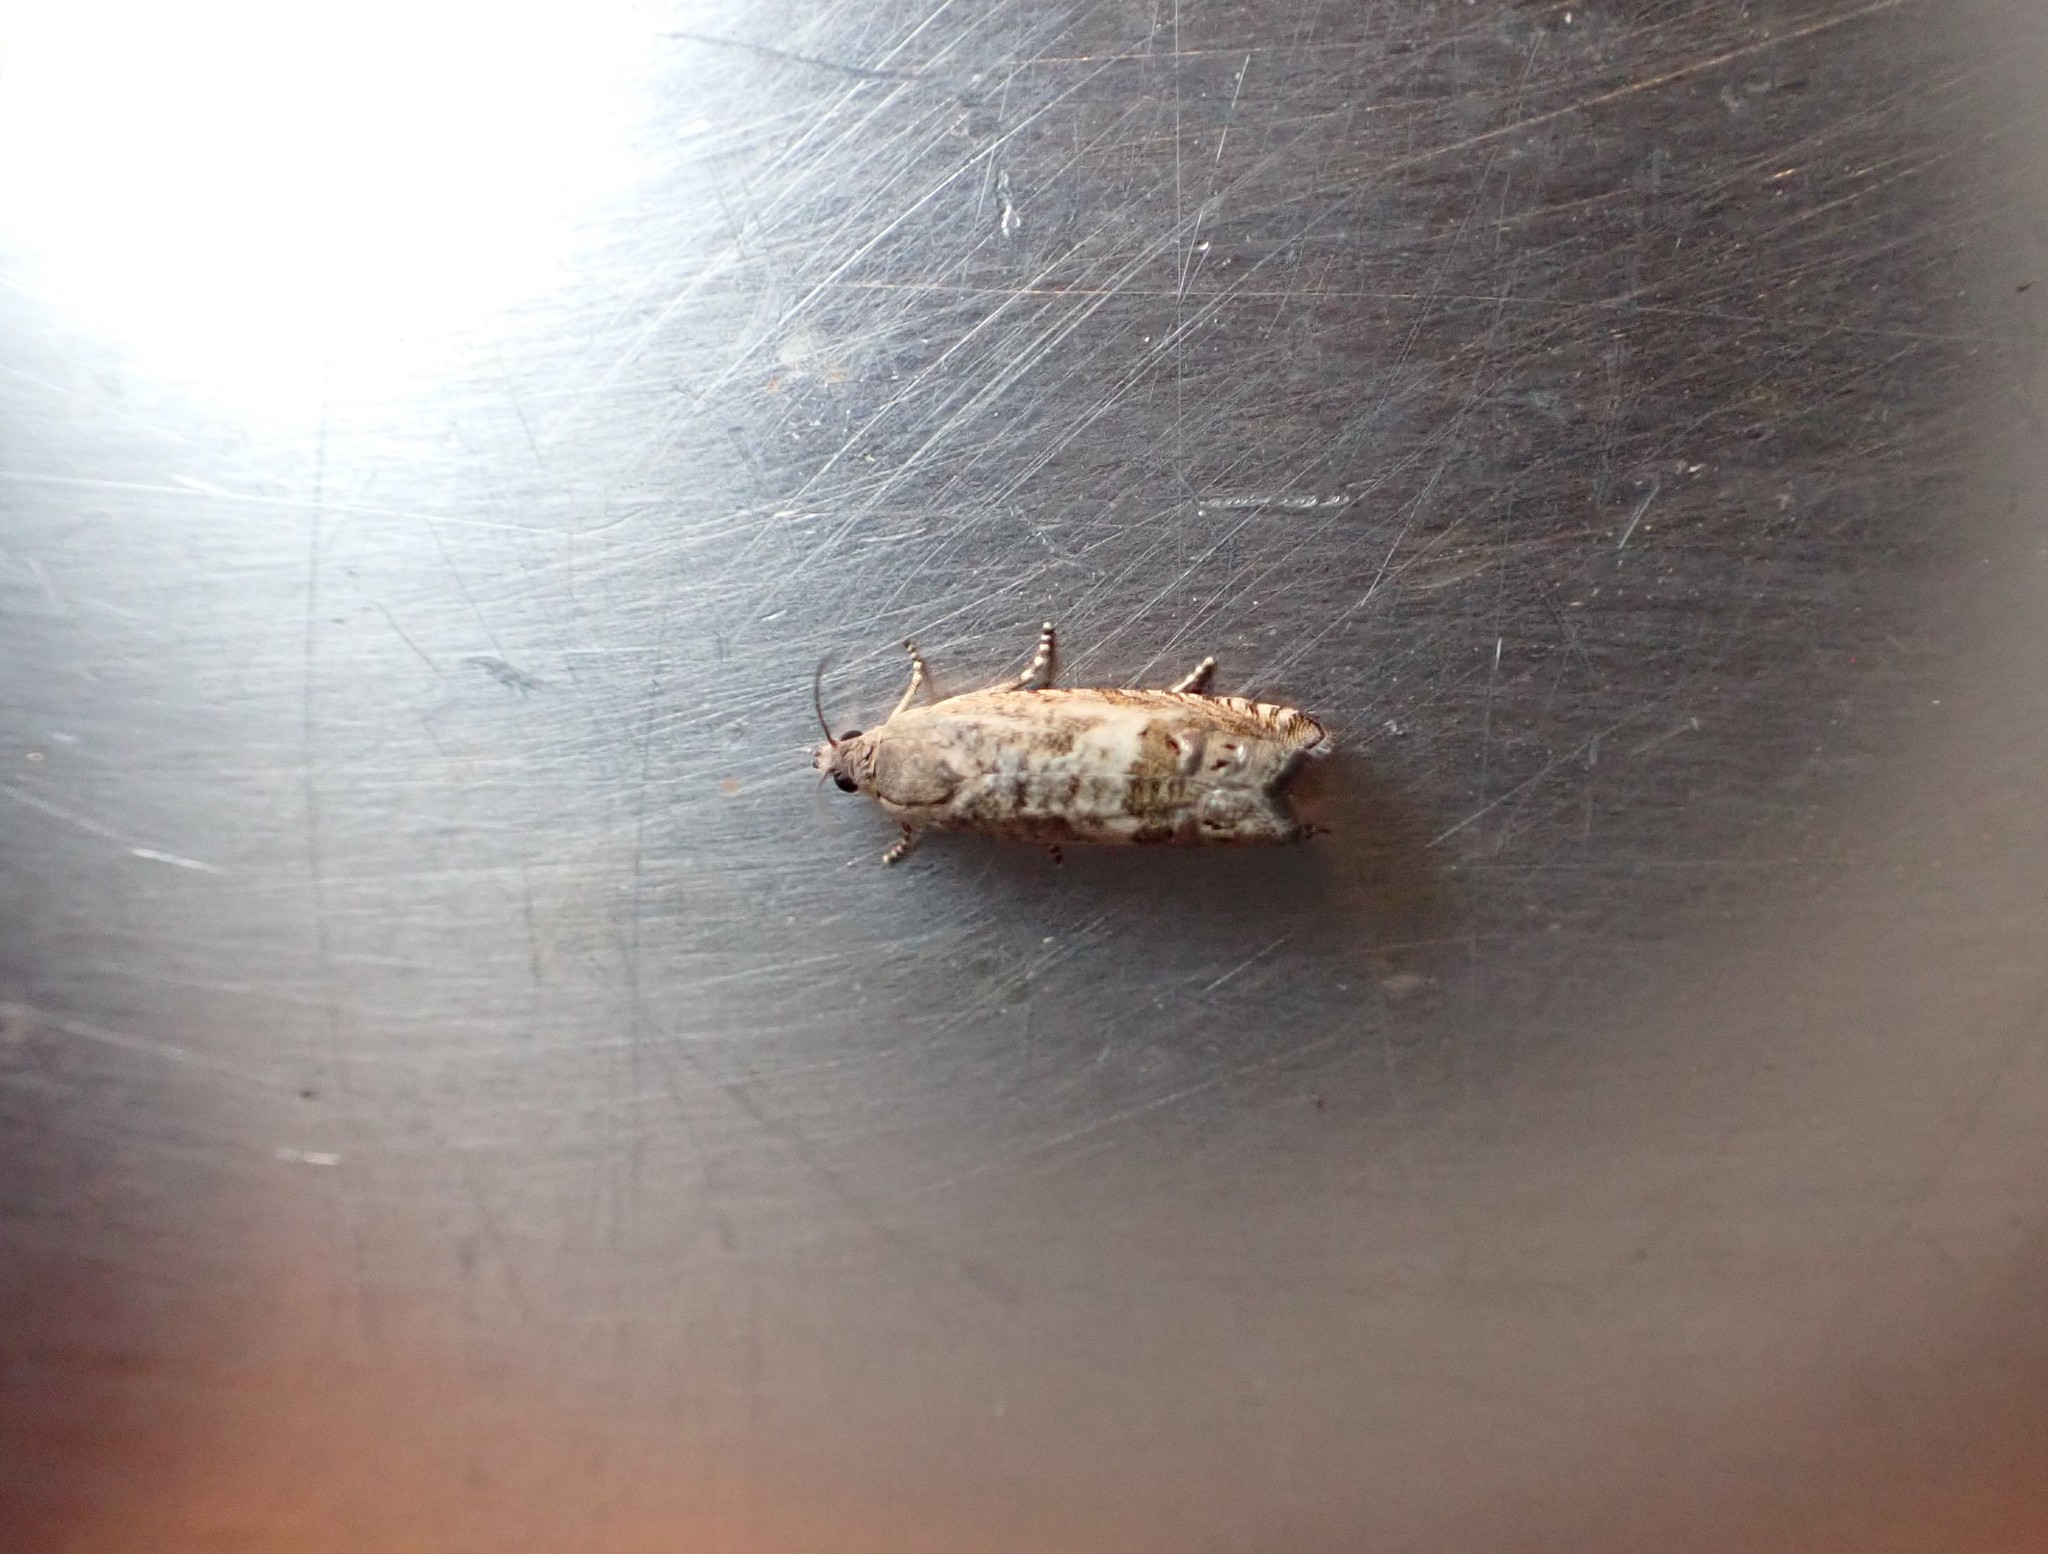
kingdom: Animalia
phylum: Arthropoda
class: Insecta
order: Lepidoptera
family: Tortricidae
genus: Cydia
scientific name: Cydia succedana
